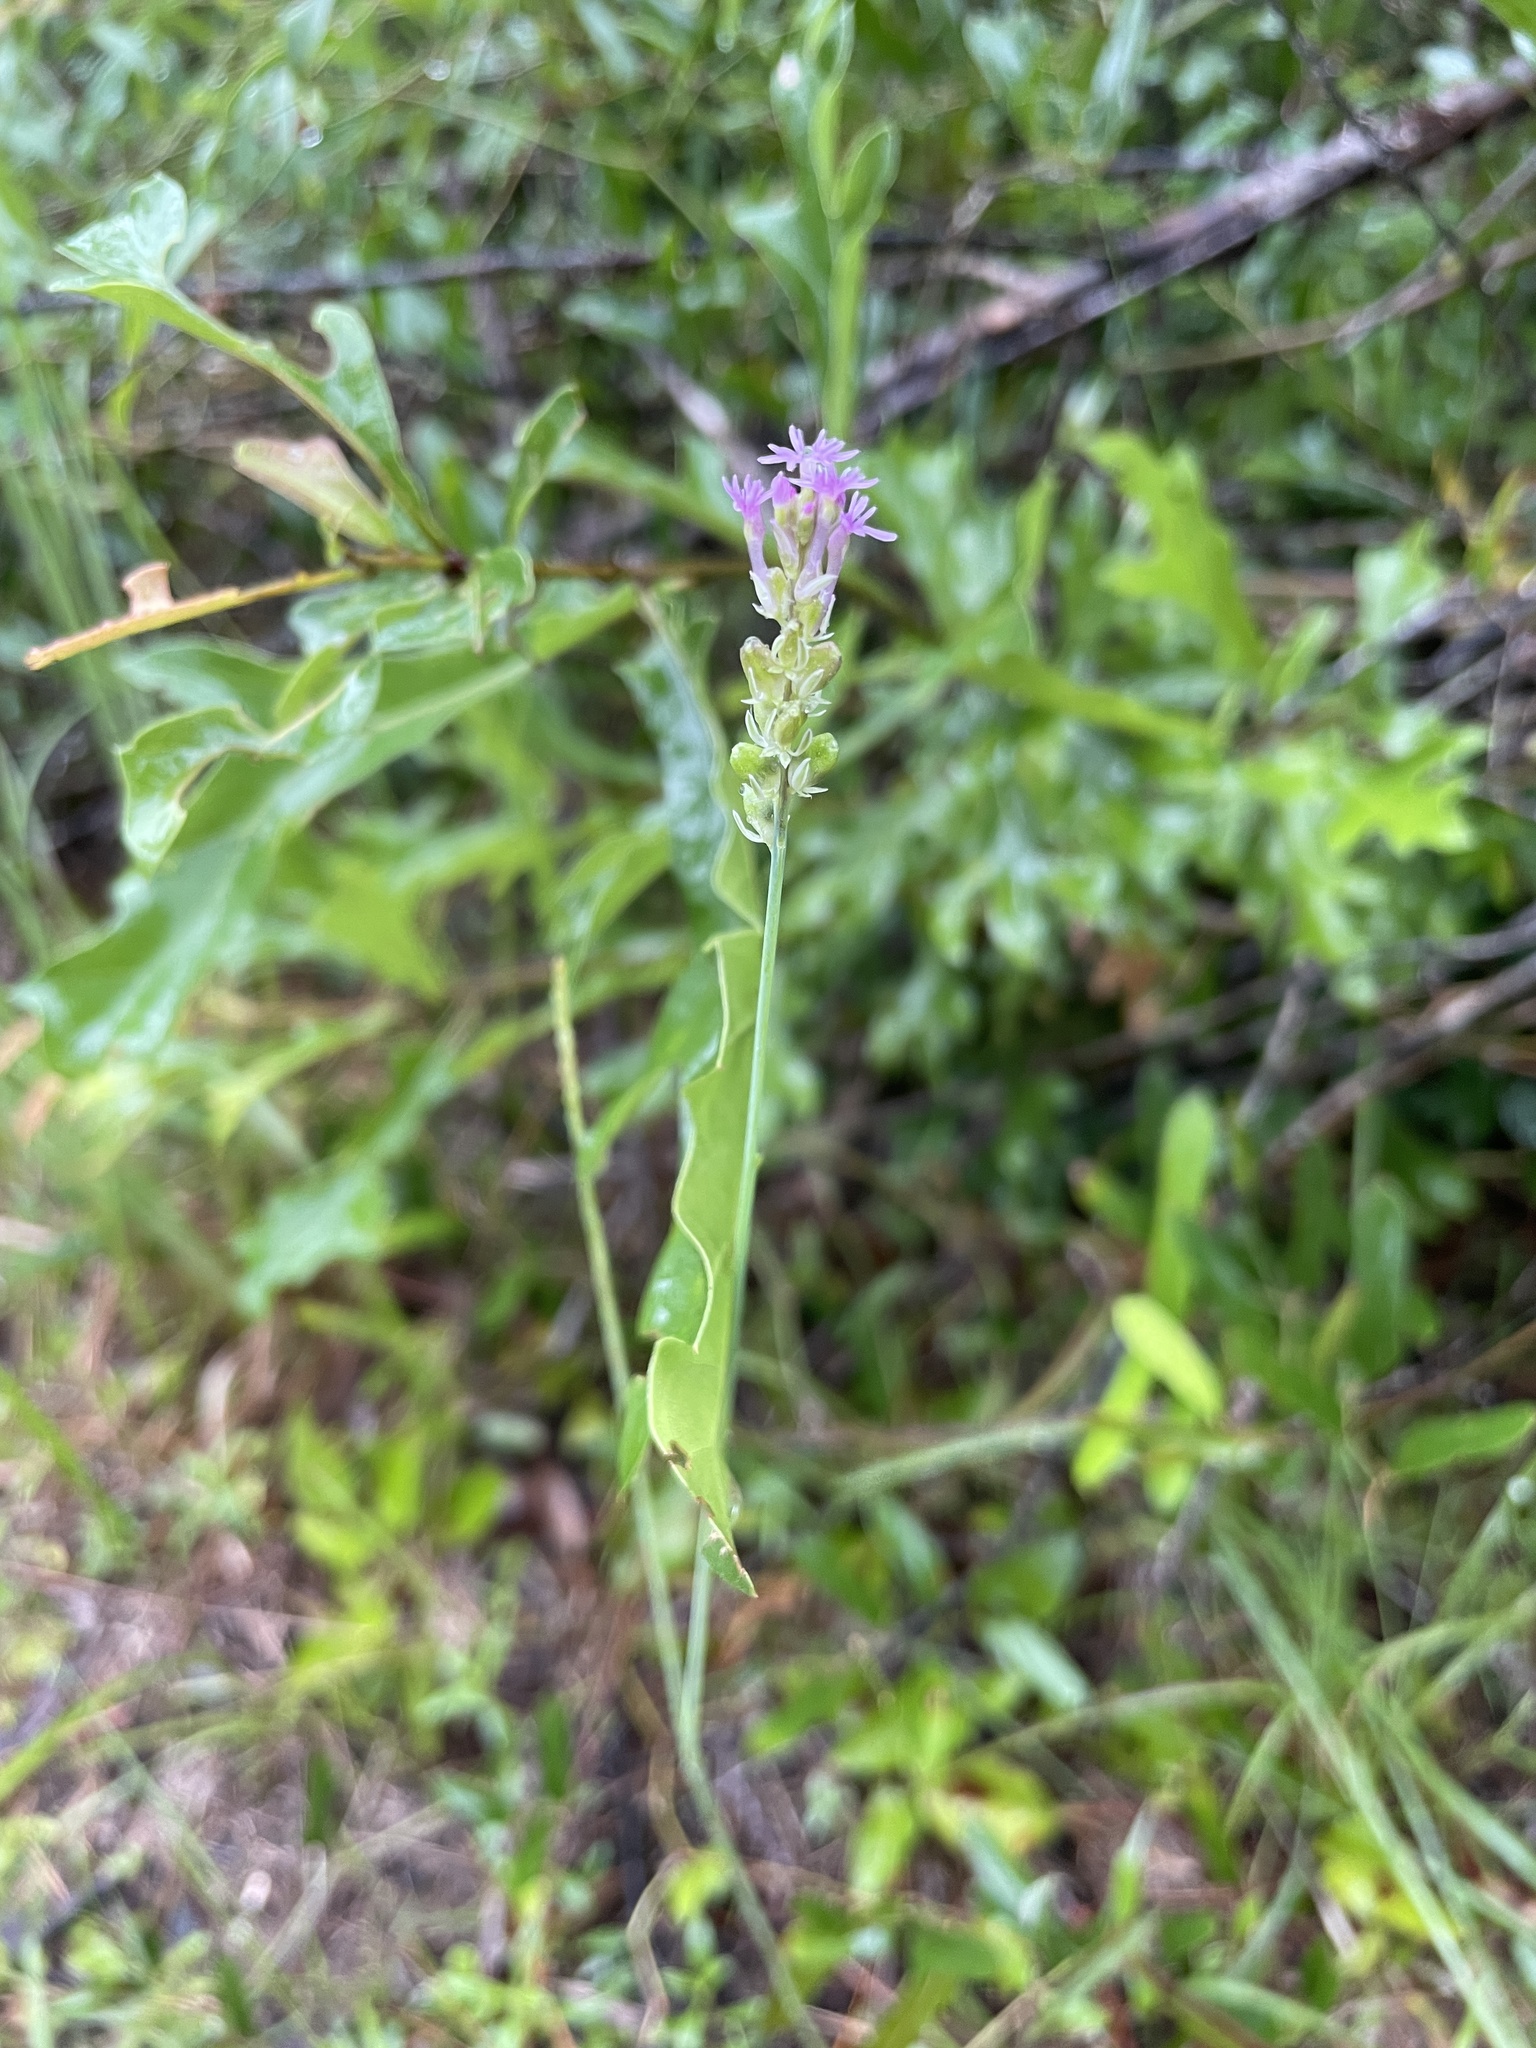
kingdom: Plantae
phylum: Tracheophyta
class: Magnoliopsida
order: Fabales
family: Polygalaceae
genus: Polygala
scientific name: Polygala incarnata
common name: Pink milkwort
